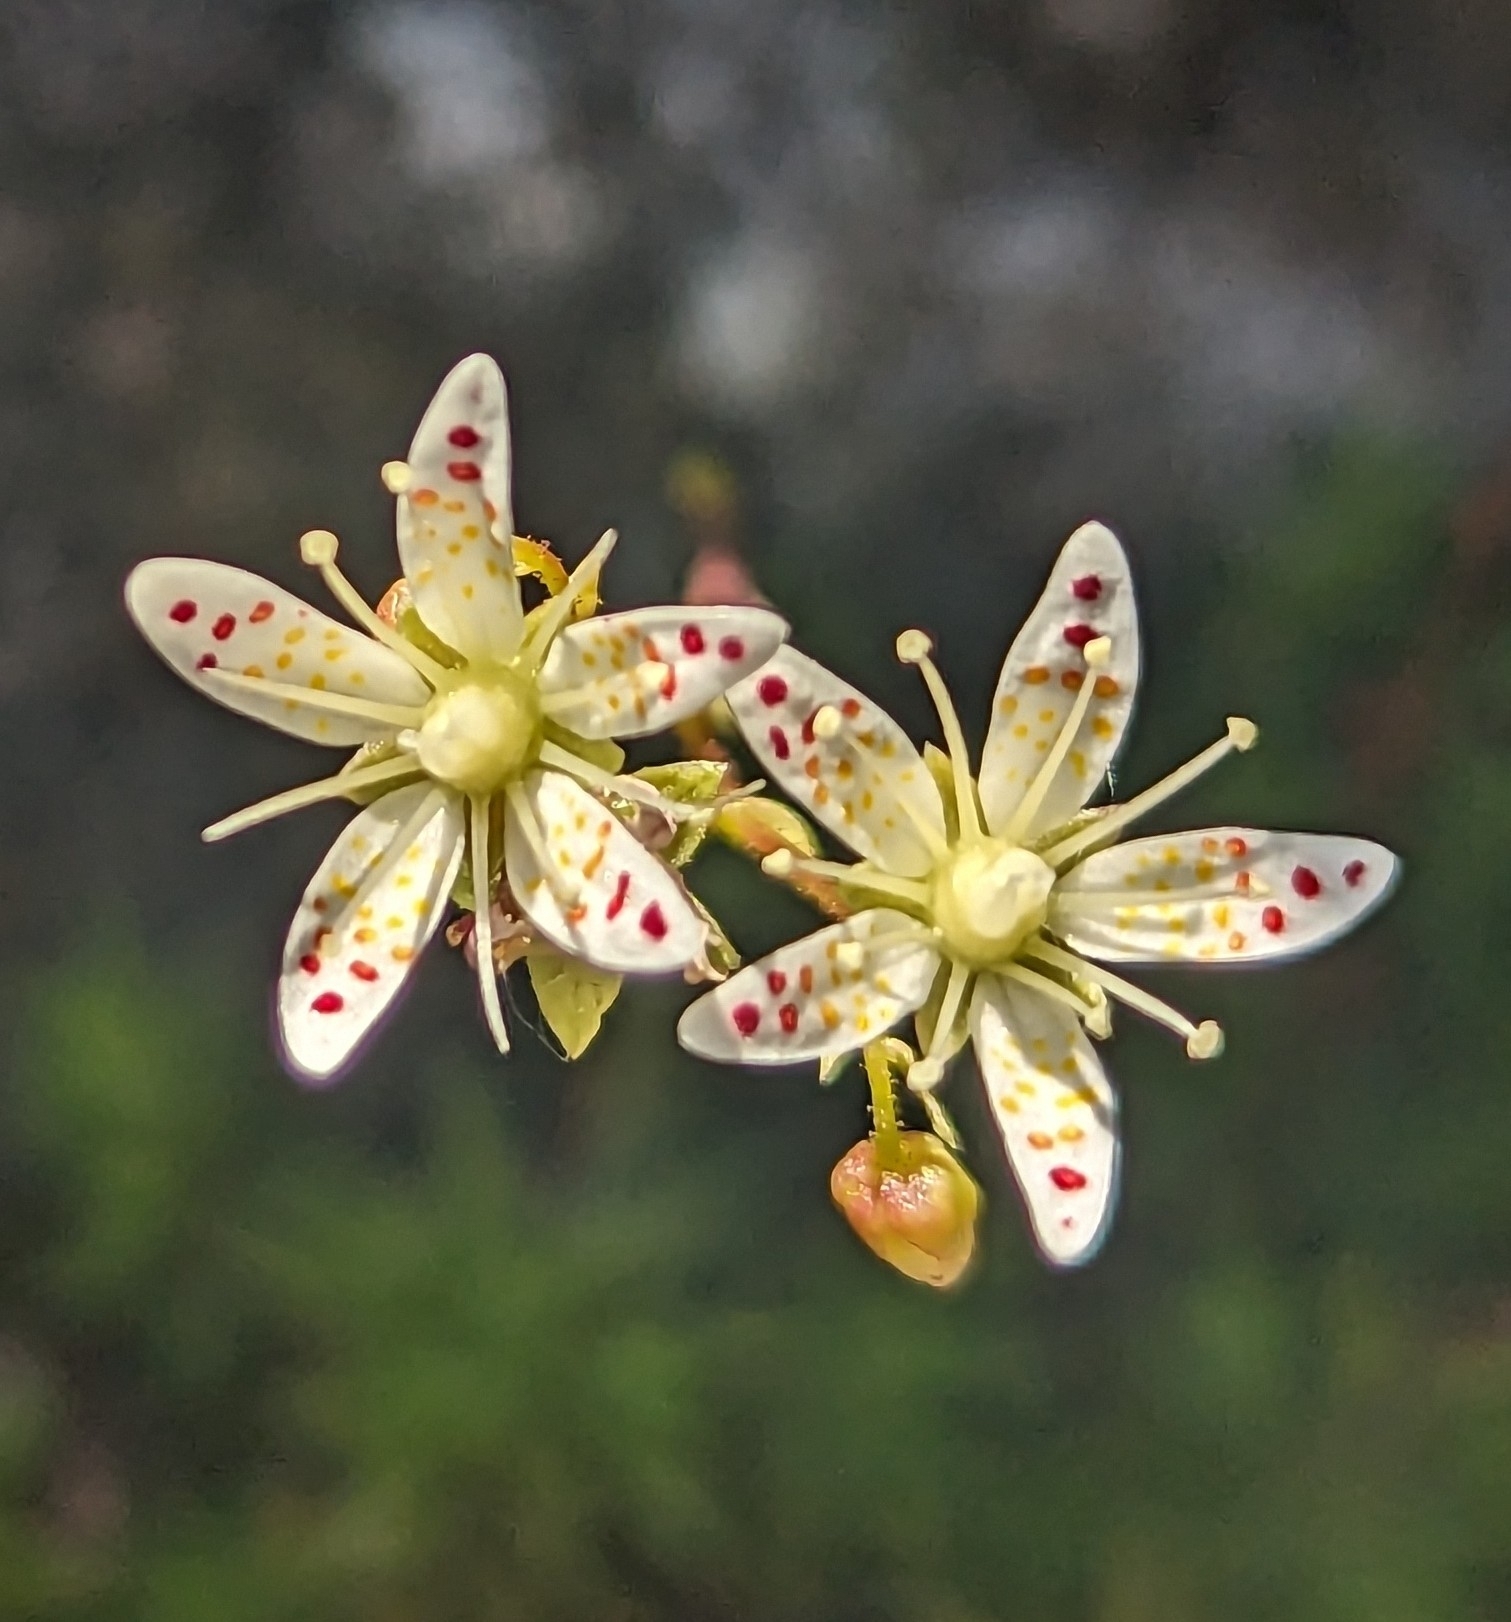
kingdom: Plantae
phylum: Tracheophyta
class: Magnoliopsida
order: Saxifragales
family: Saxifragaceae
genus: Saxifraga
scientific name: Saxifraga bronchialis
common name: Matted saxifrage
